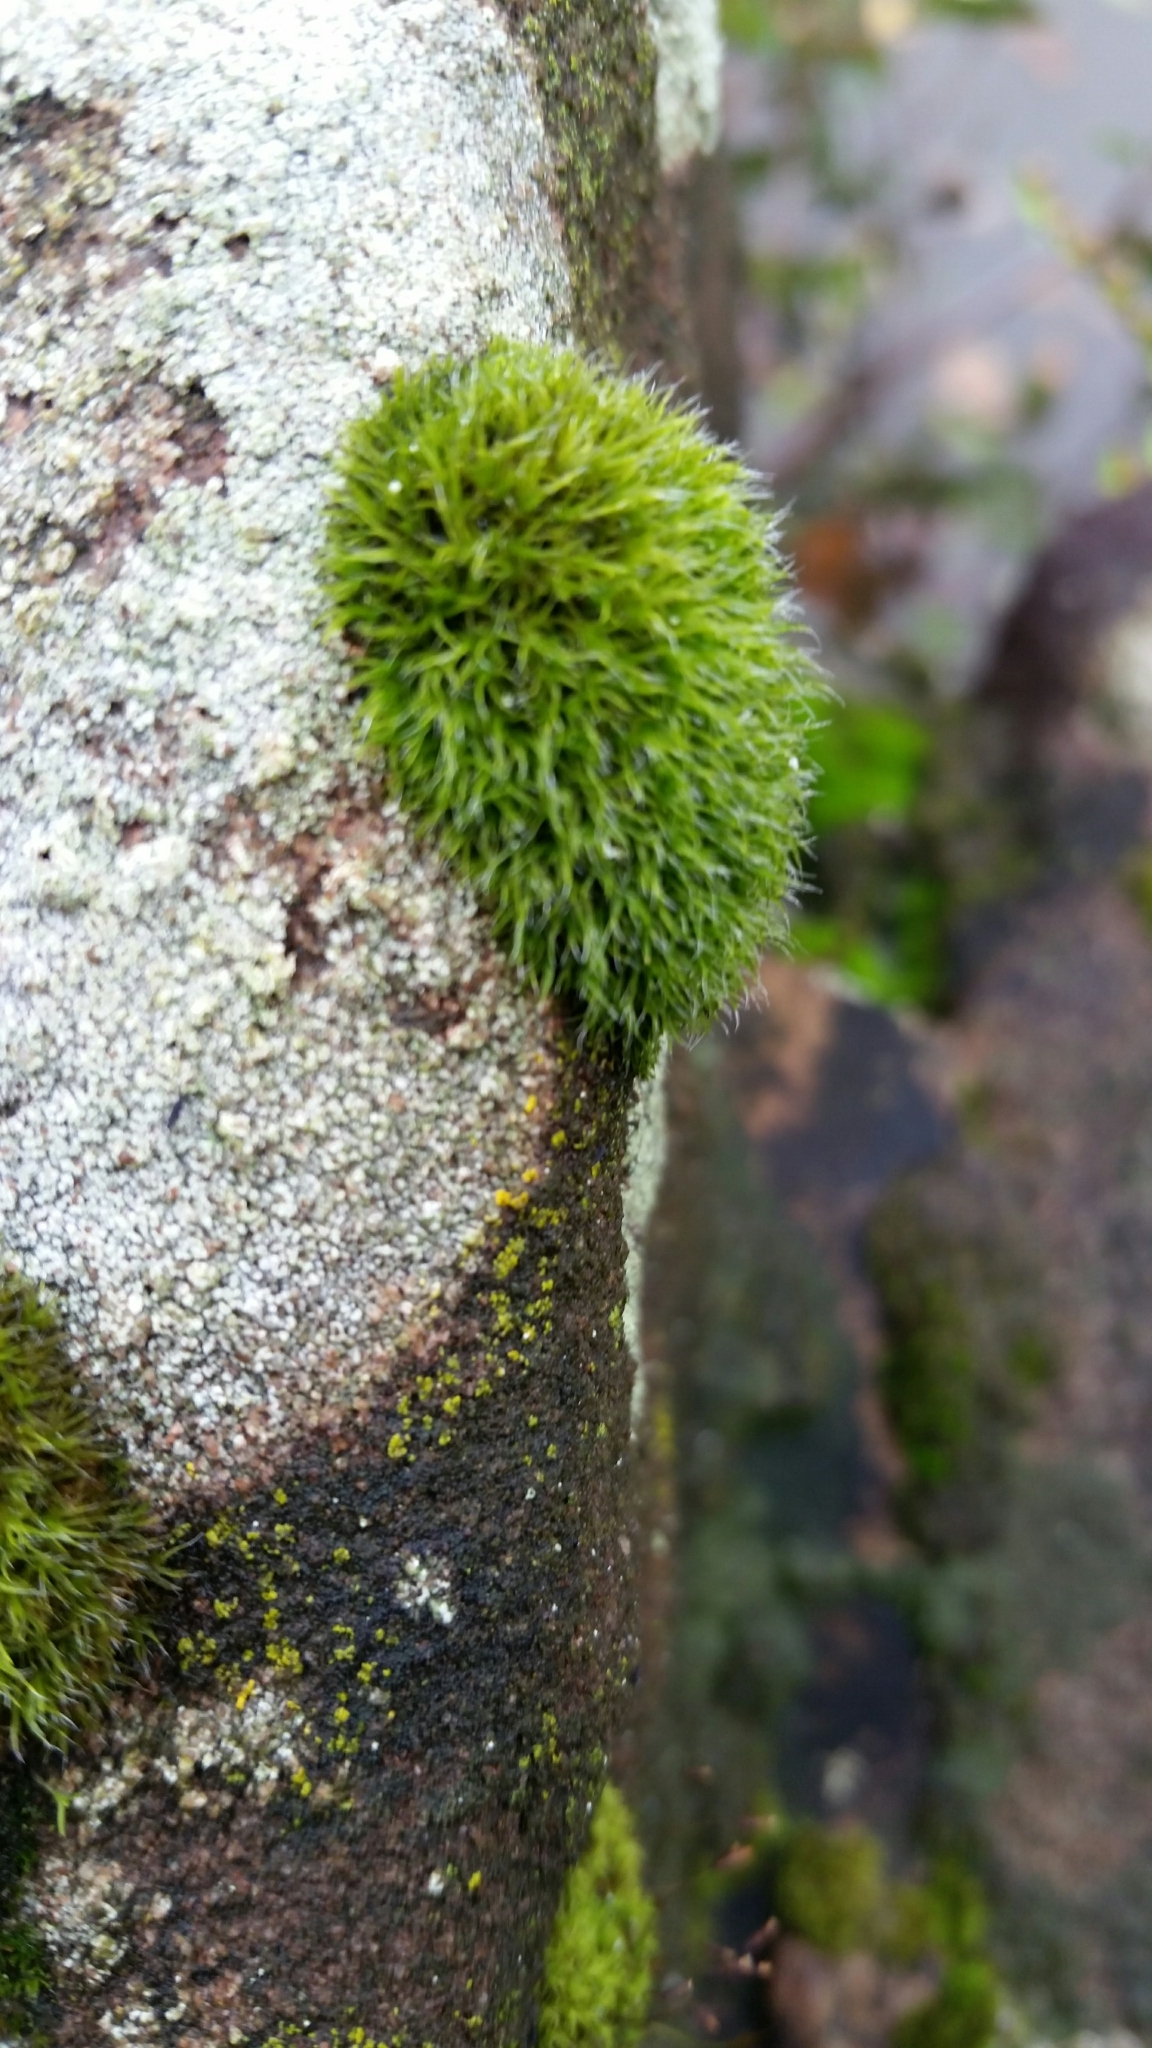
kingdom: Plantae
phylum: Bryophyta
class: Bryopsida
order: Grimmiales
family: Grimmiaceae
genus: Grimmia
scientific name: Grimmia pulvinata
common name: Grey-cushioned grimmia
